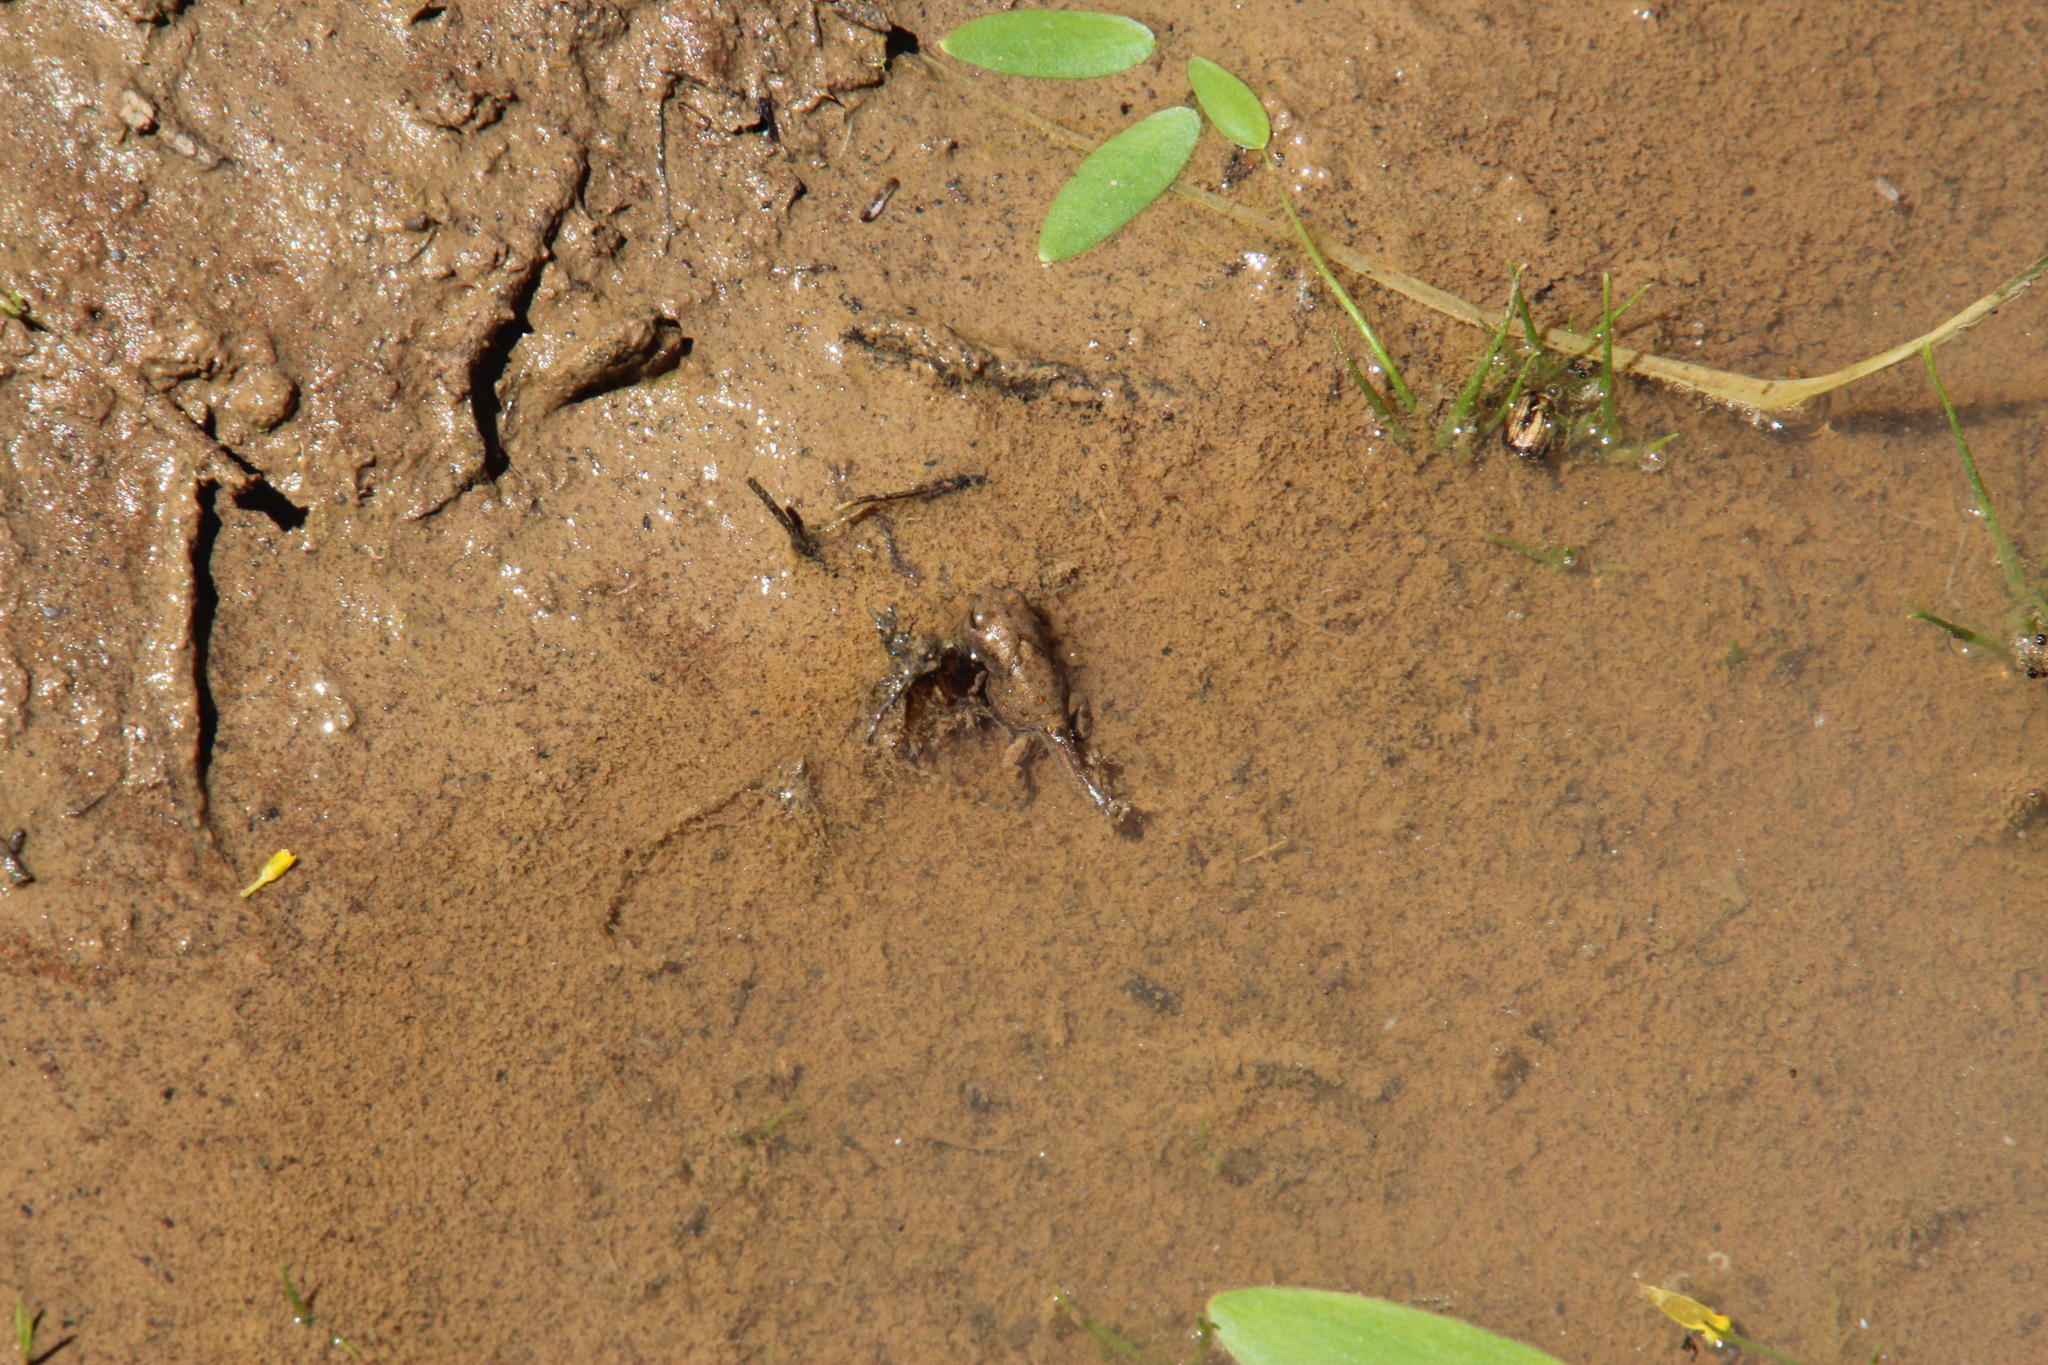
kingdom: Animalia
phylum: Chordata
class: Amphibia
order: Anura
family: Bufonidae
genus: Vandijkophrynus
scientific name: Vandijkophrynus gariepensis
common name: Gariep toad
